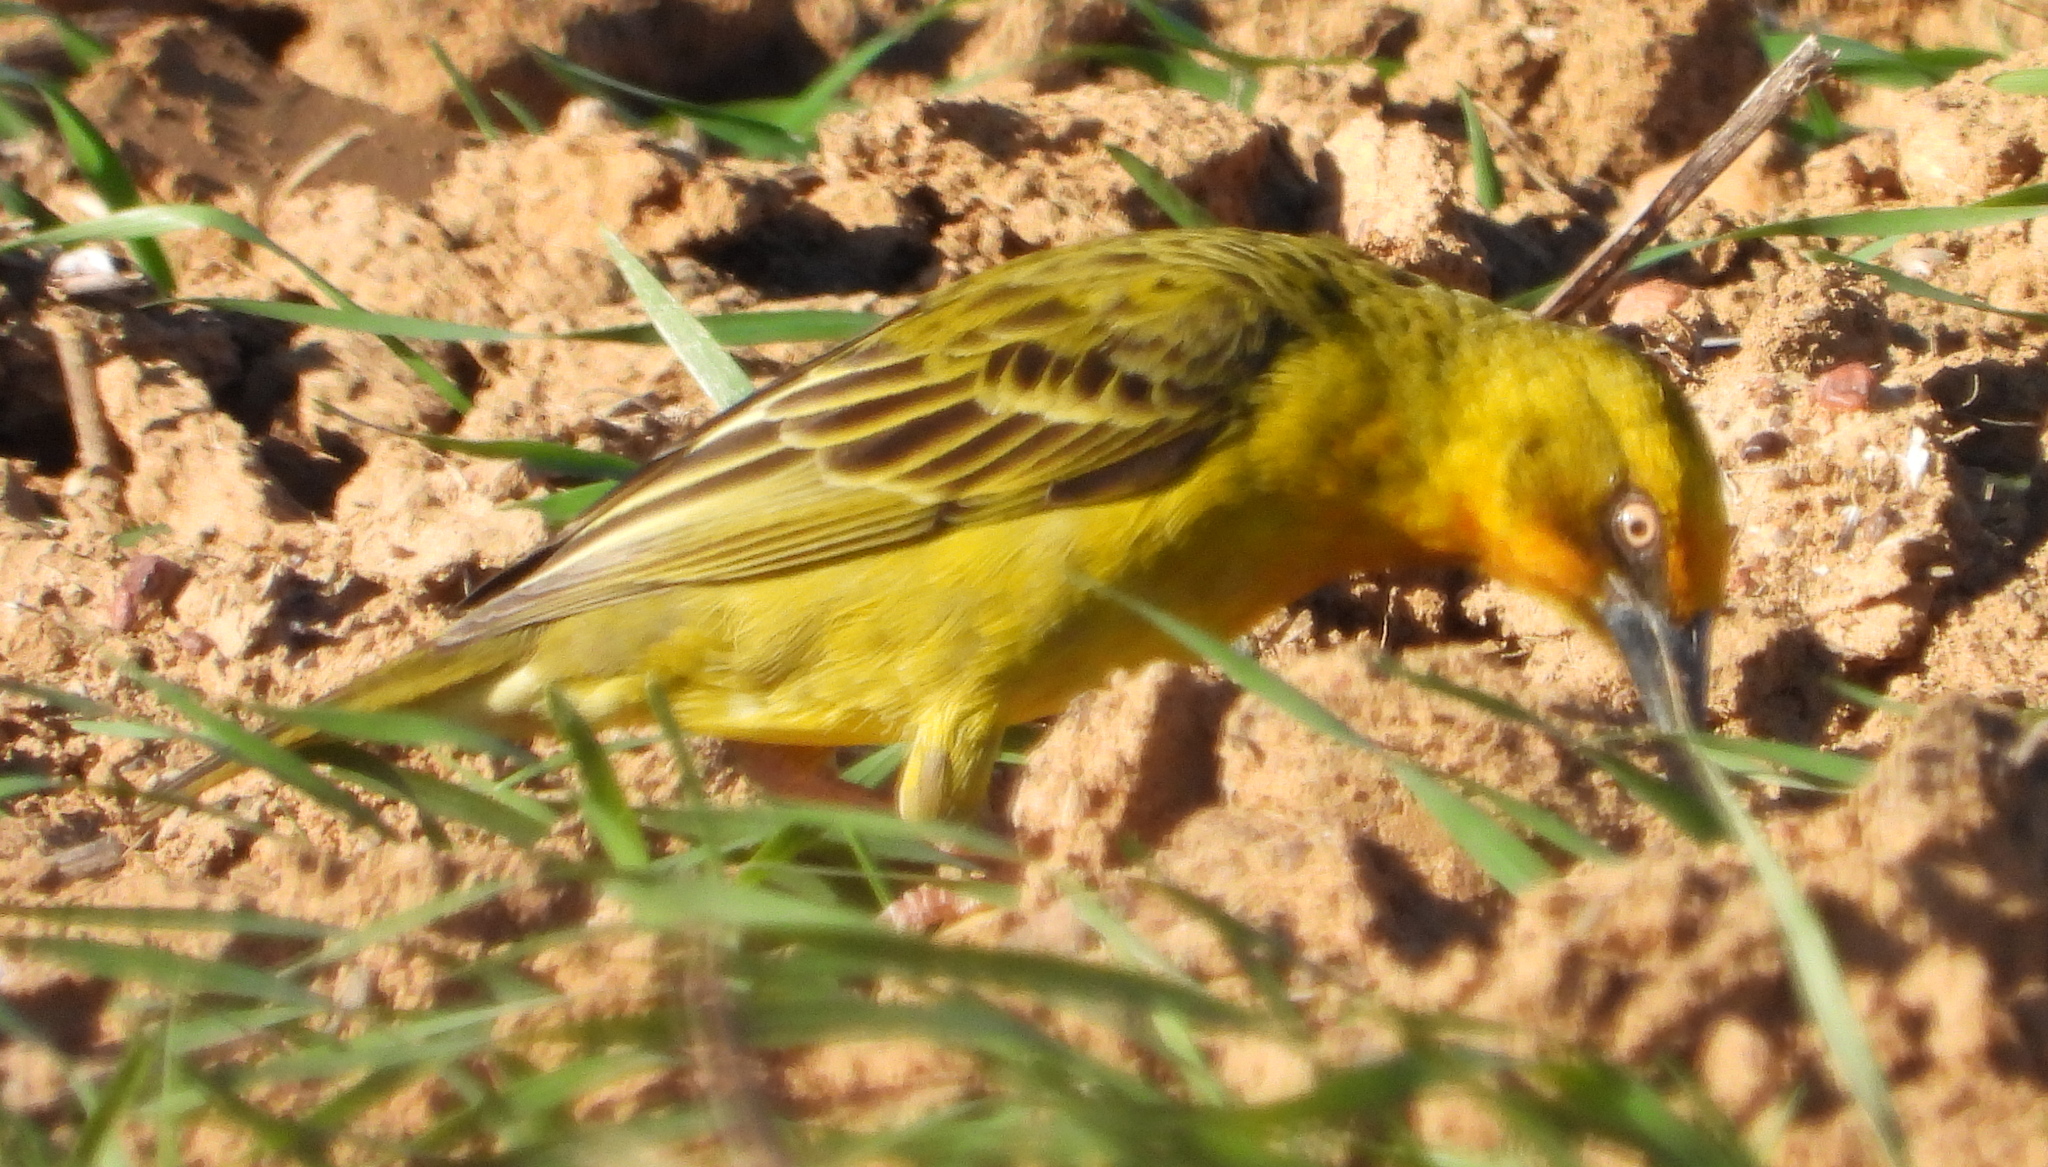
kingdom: Animalia
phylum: Chordata
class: Aves
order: Passeriformes
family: Ploceidae
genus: Ploceus
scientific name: Ploceus capensis
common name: Cape weaver
